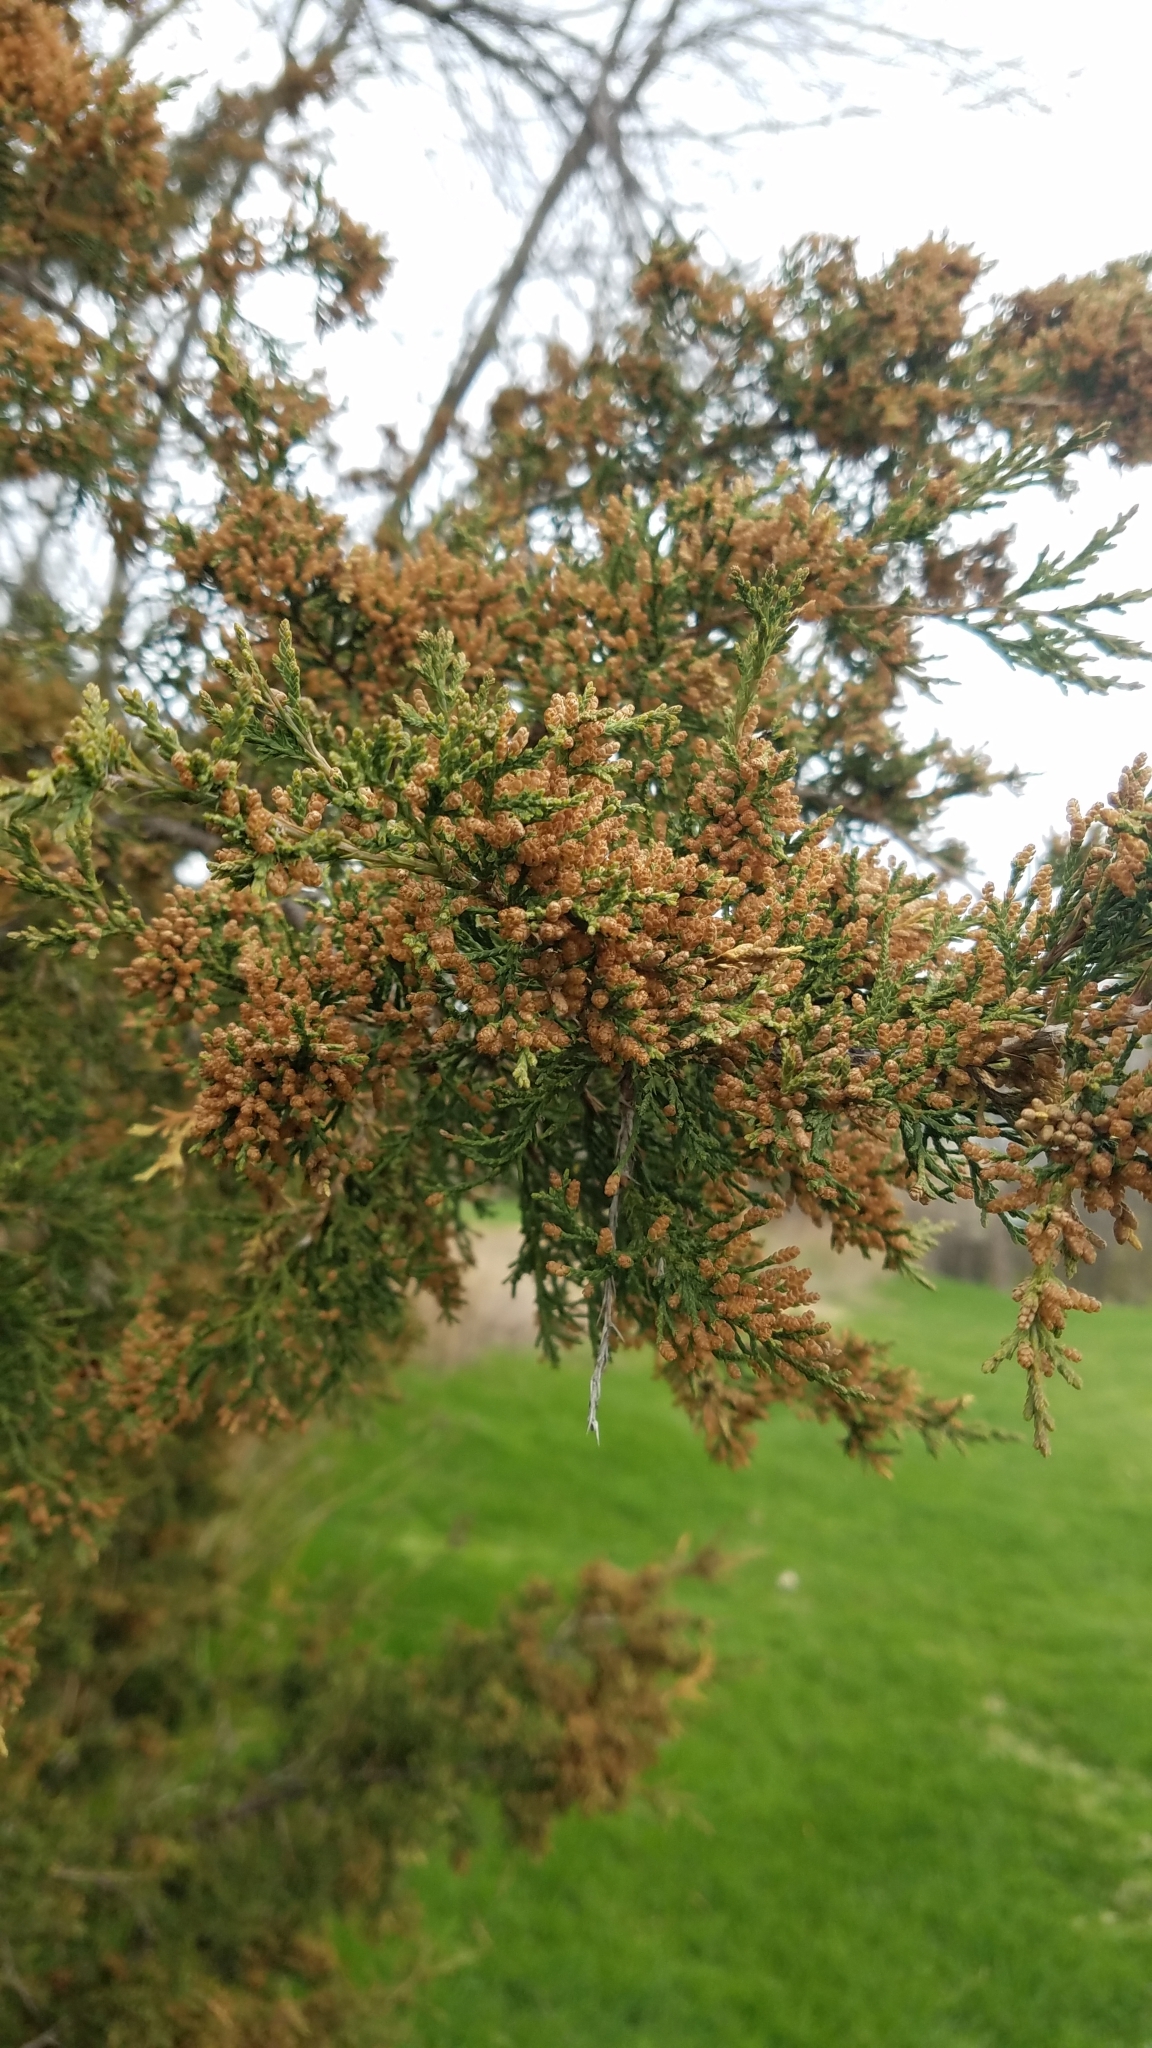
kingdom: Plantae
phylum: Tracheophyta
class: Pinopsida
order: Pinales
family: Cupressaceae
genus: Juniperus
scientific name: Juniperus virginiana
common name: Red juniper
